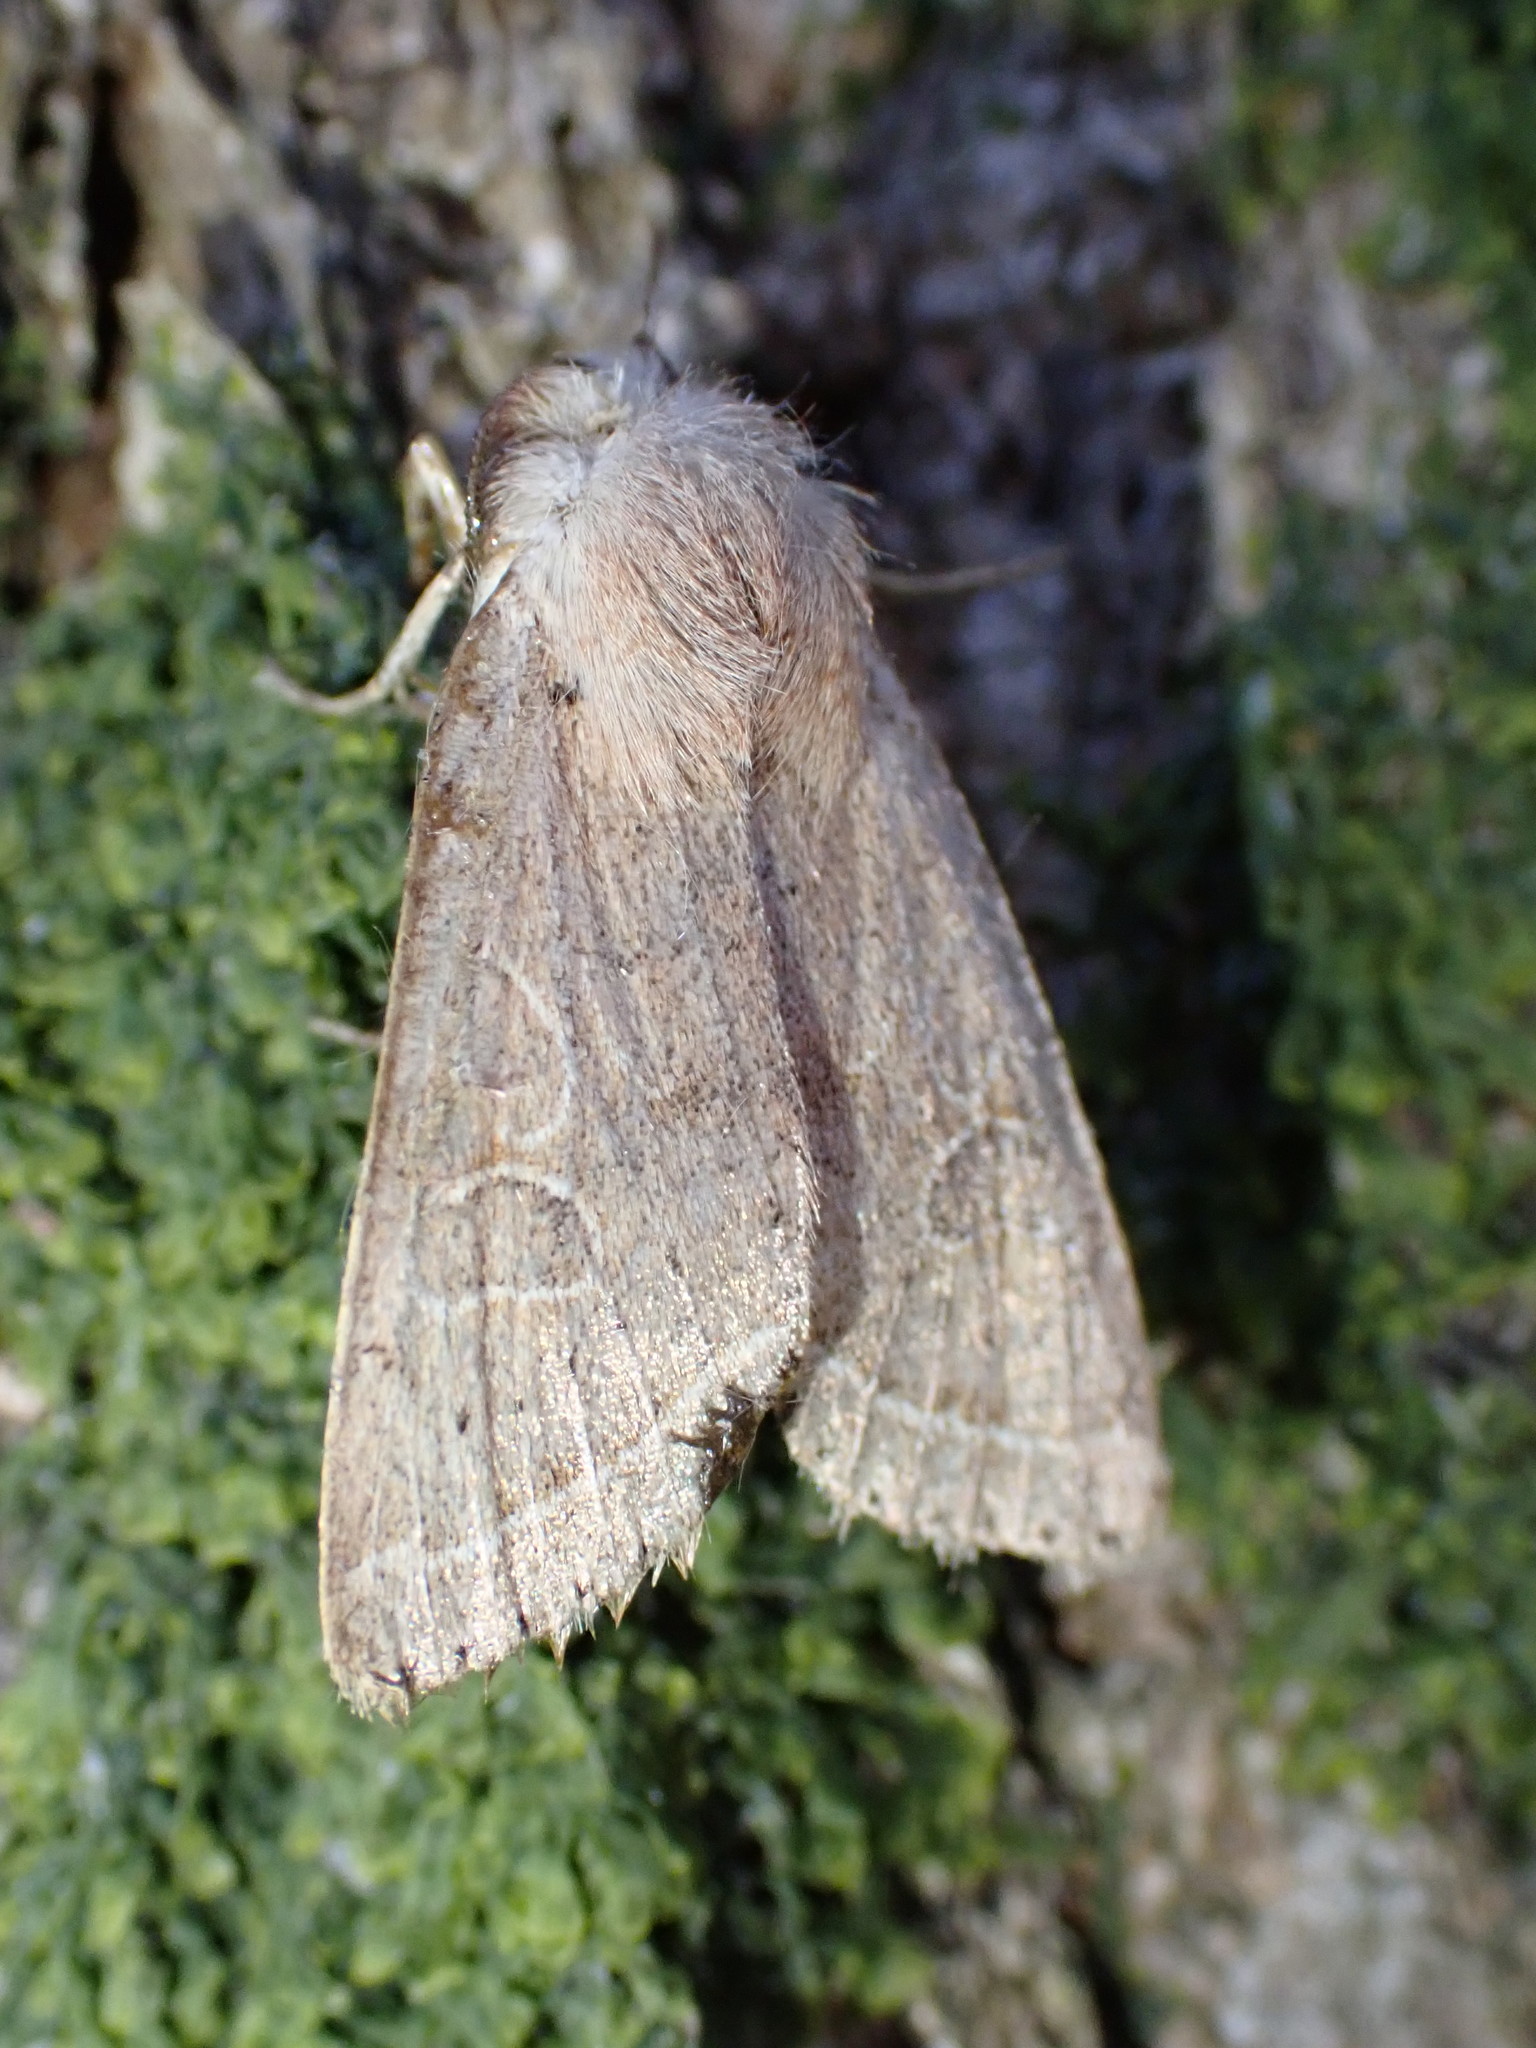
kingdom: Animalia
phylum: Arthropoda
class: Insecta
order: Lepidoptera
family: Noctuidae
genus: Orthosia
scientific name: Orthosia cerasi
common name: Common quaker
